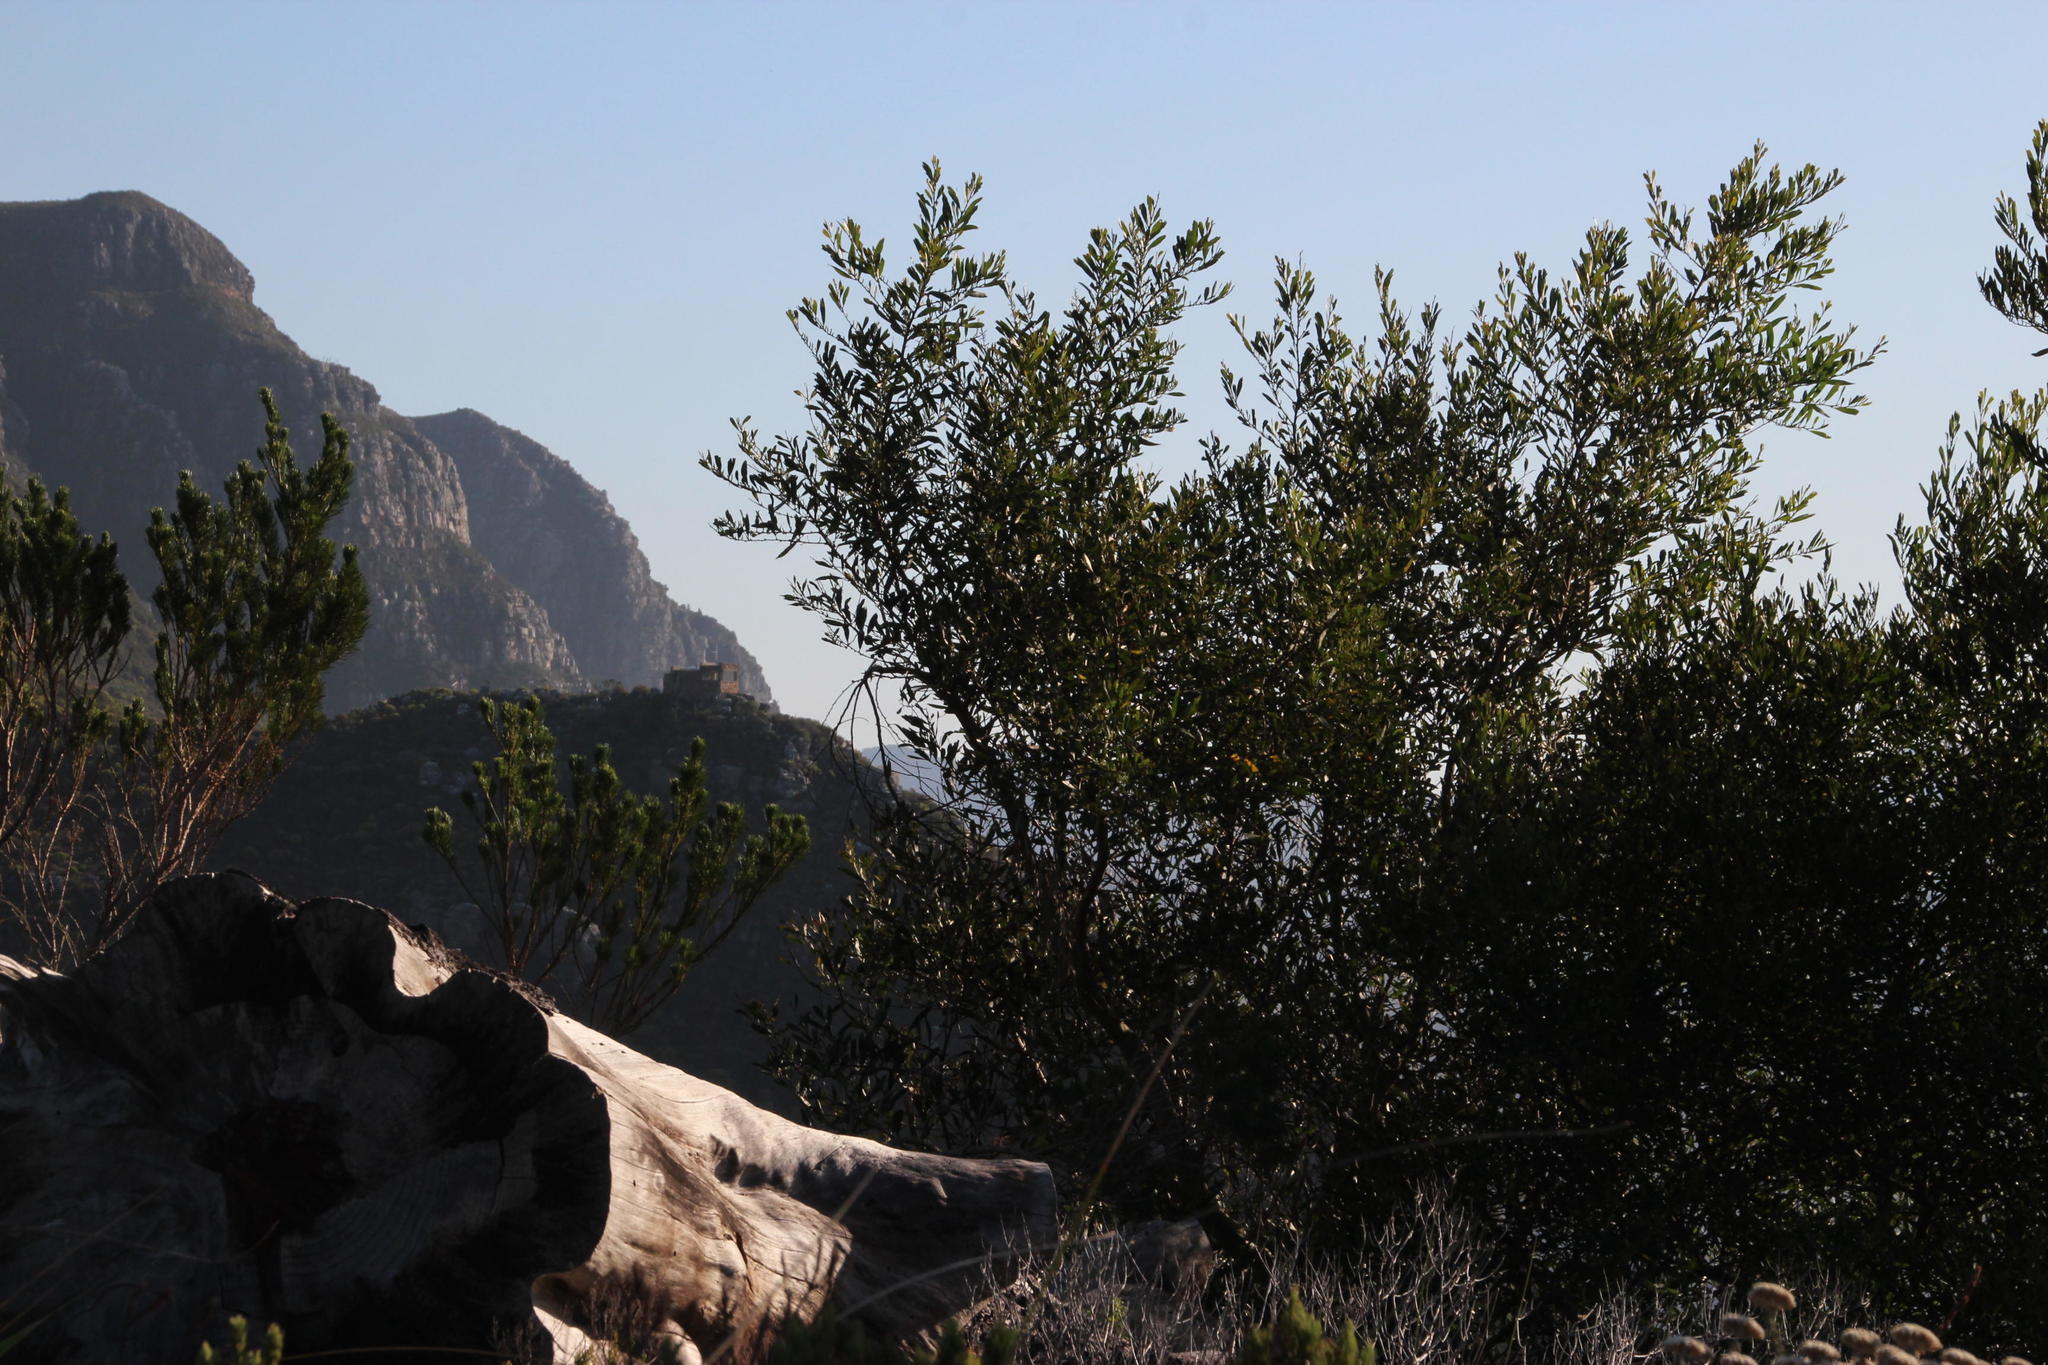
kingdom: Plantae
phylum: Tracheophyta
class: Magnoliopsida
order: Fabales
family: Fabaceae
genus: Acacia
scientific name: Acacia longifolia
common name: Sydney golden wattle
